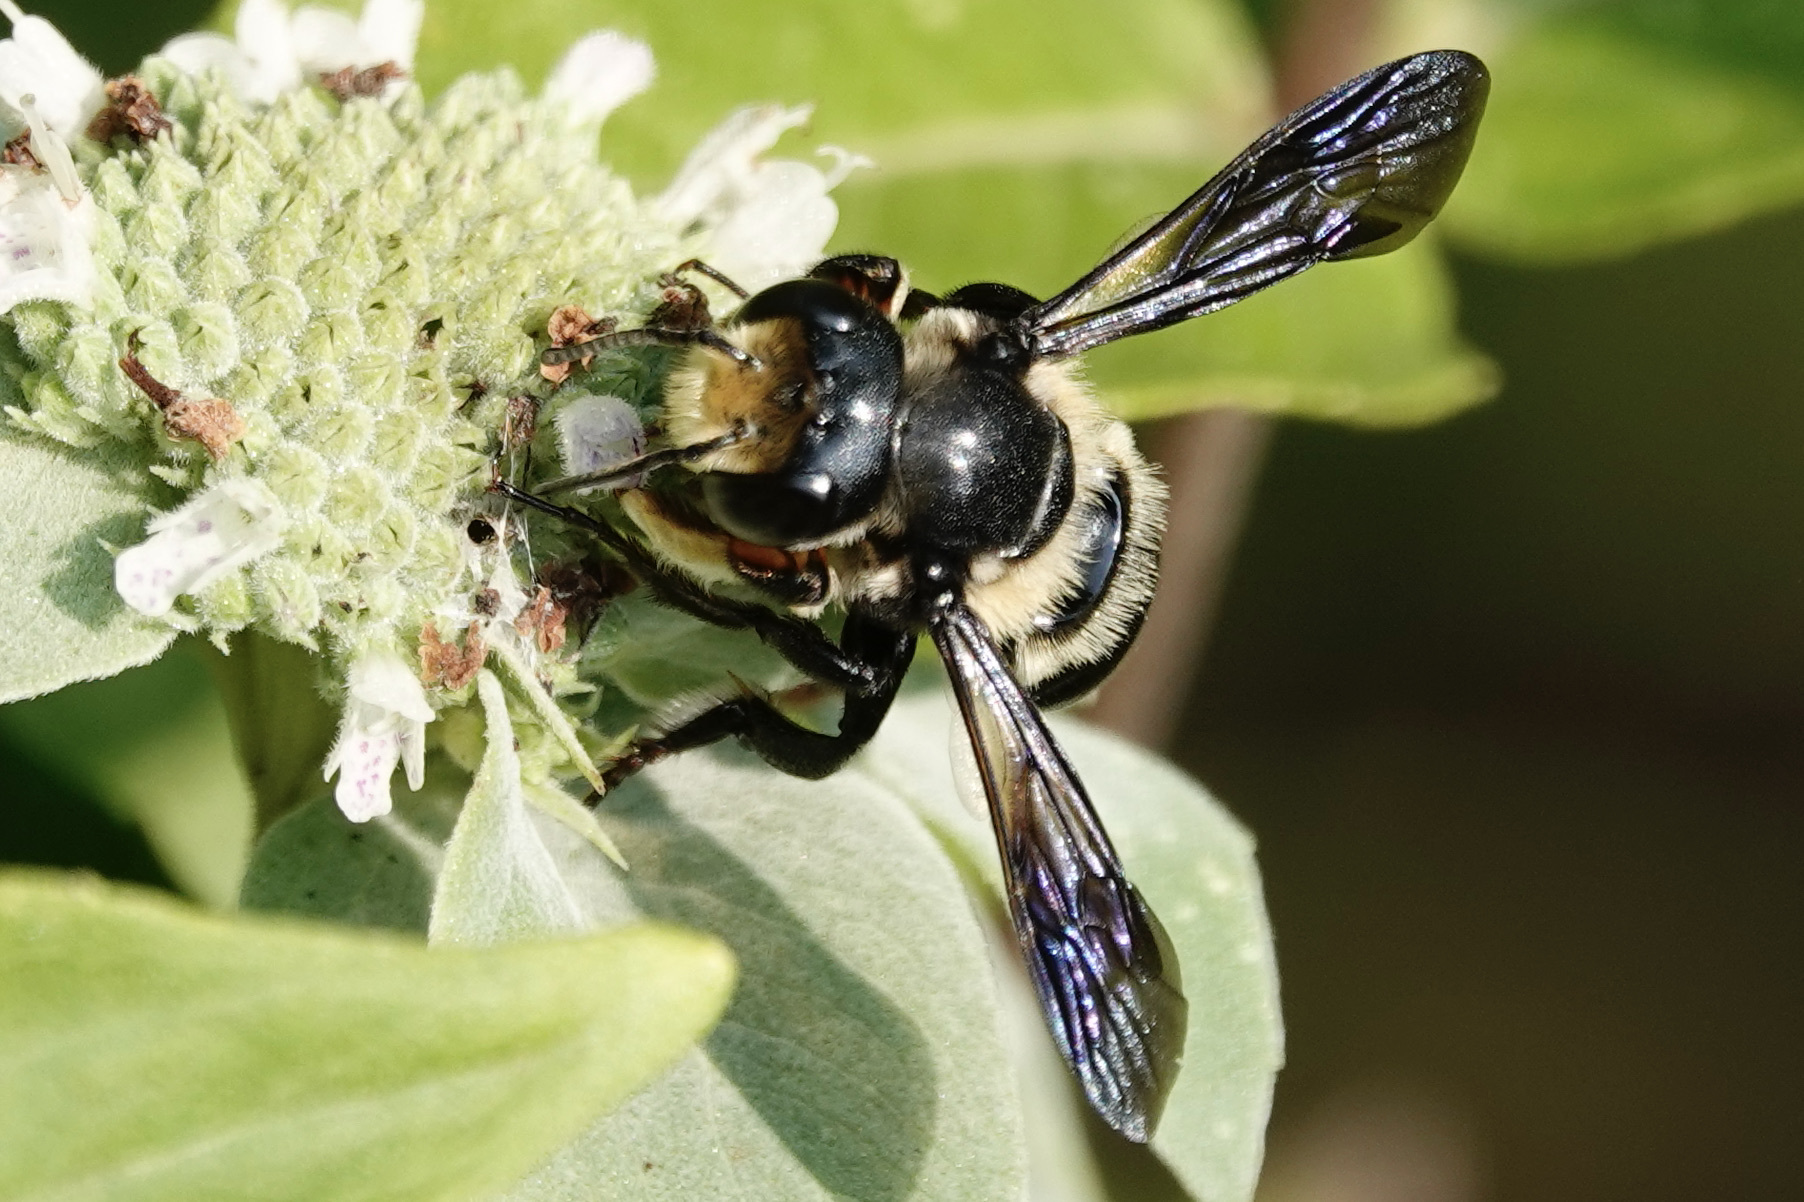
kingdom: Animalia
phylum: Arthropoda
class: Insecta
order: Hymenoptera
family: Megachilidae
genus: Megachile
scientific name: Megachile xylocopoides
